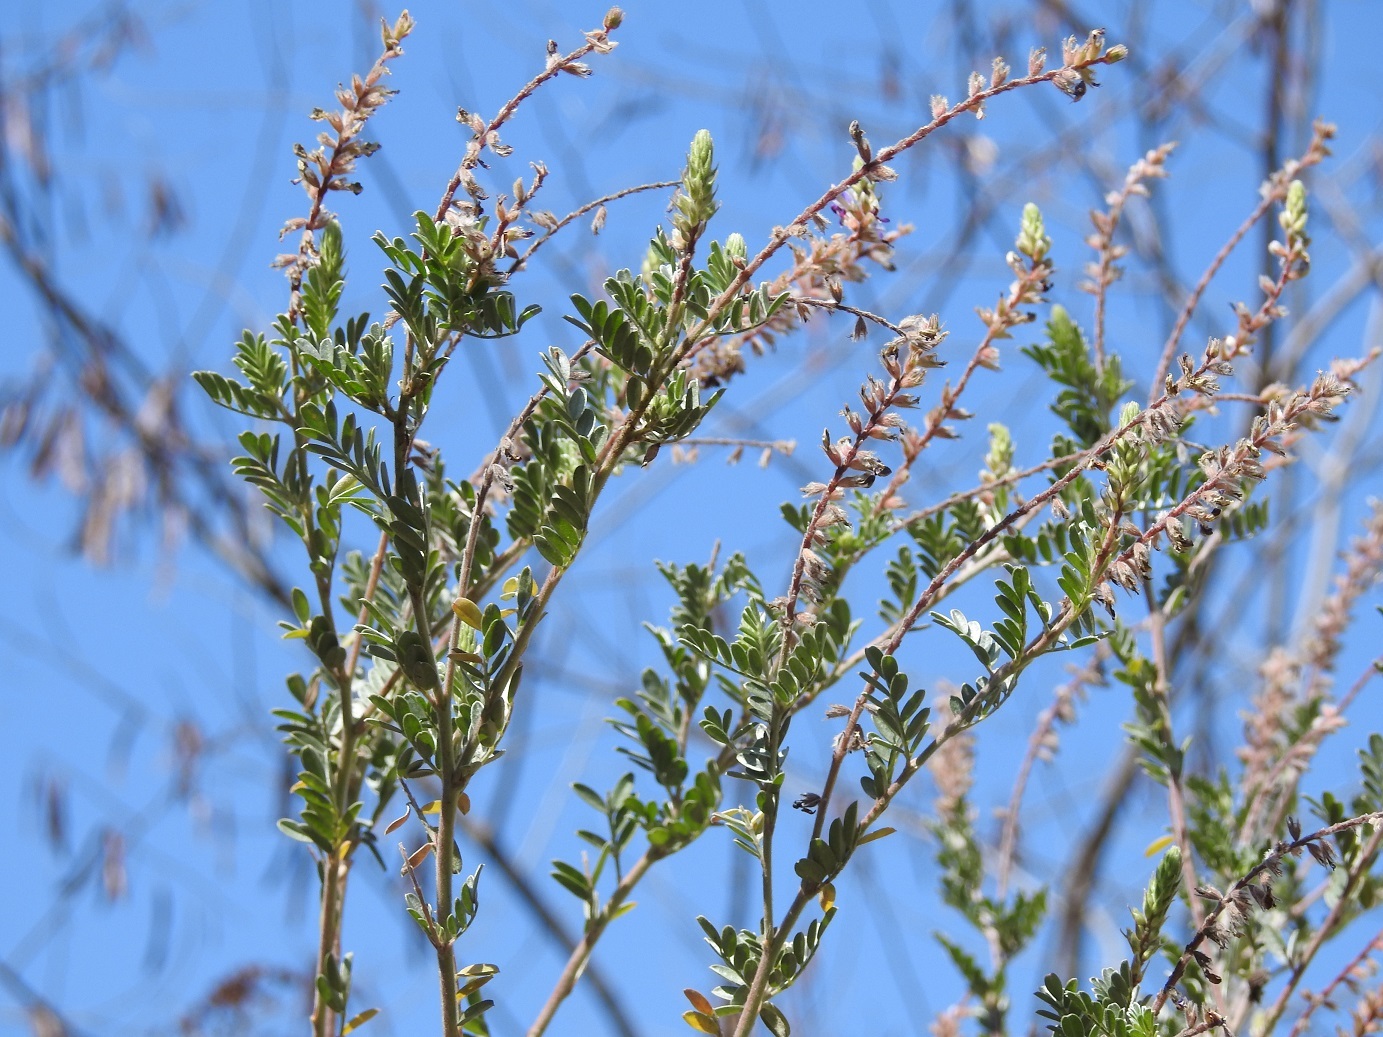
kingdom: Plantae
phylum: Tracheophyta
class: Magnoliopsida
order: Fabales
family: Fabaceae
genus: Marina
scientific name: Marina ghiesbreghtii
